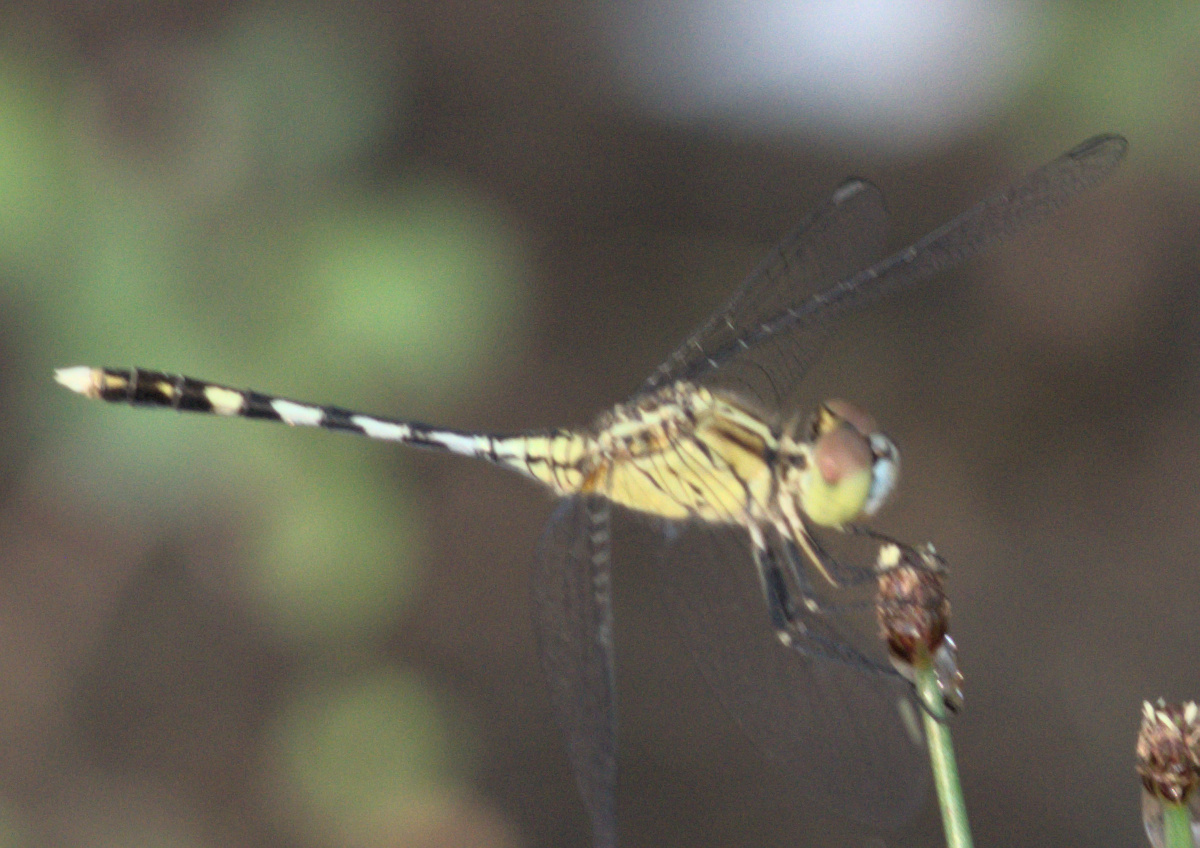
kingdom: Animalia
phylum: Arthropoda
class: Insecta
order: Odonata
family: Libellulidae
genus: Diplacodes
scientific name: Diplacodes trivialis
